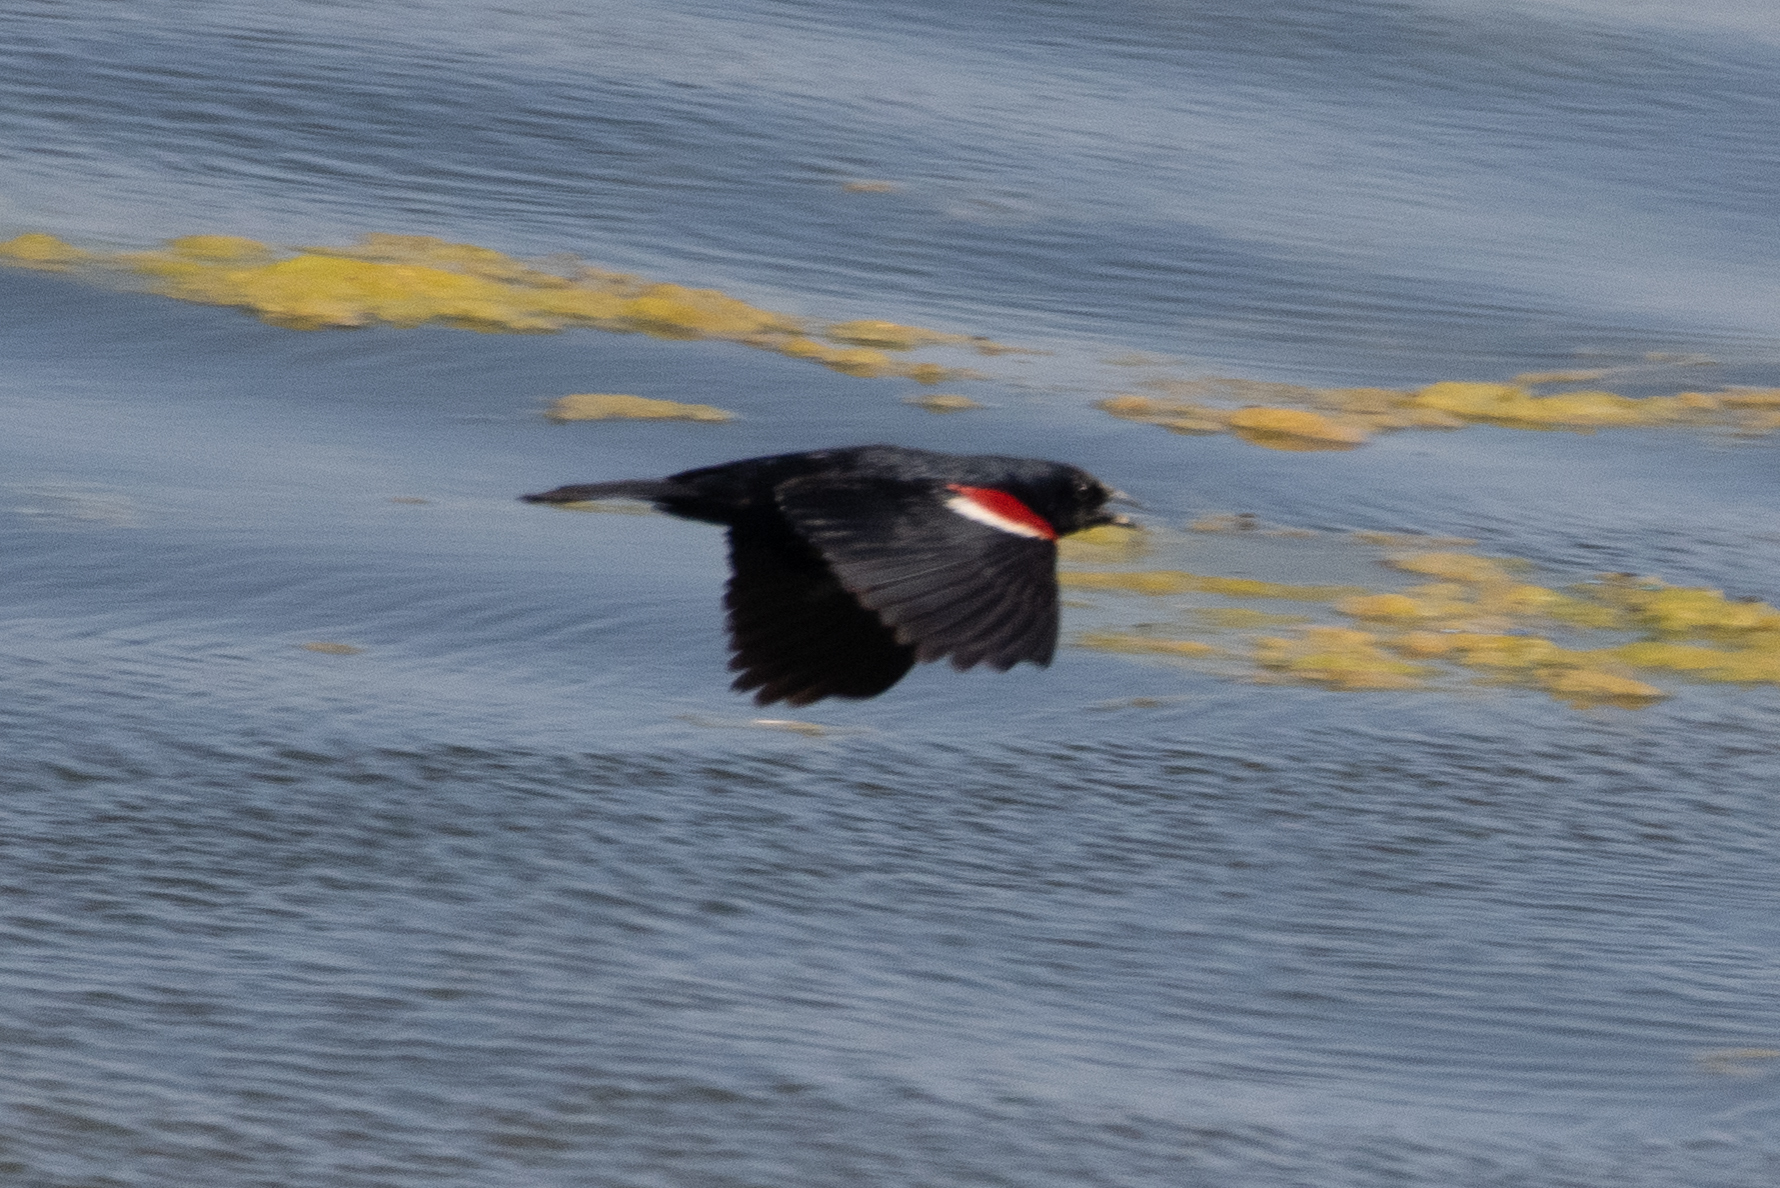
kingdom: Animalia
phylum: Chordata
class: Aves
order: Passeriformes
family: Icteridae
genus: Agelaius
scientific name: Agelaius tricolor
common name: Tricolored blackbird
